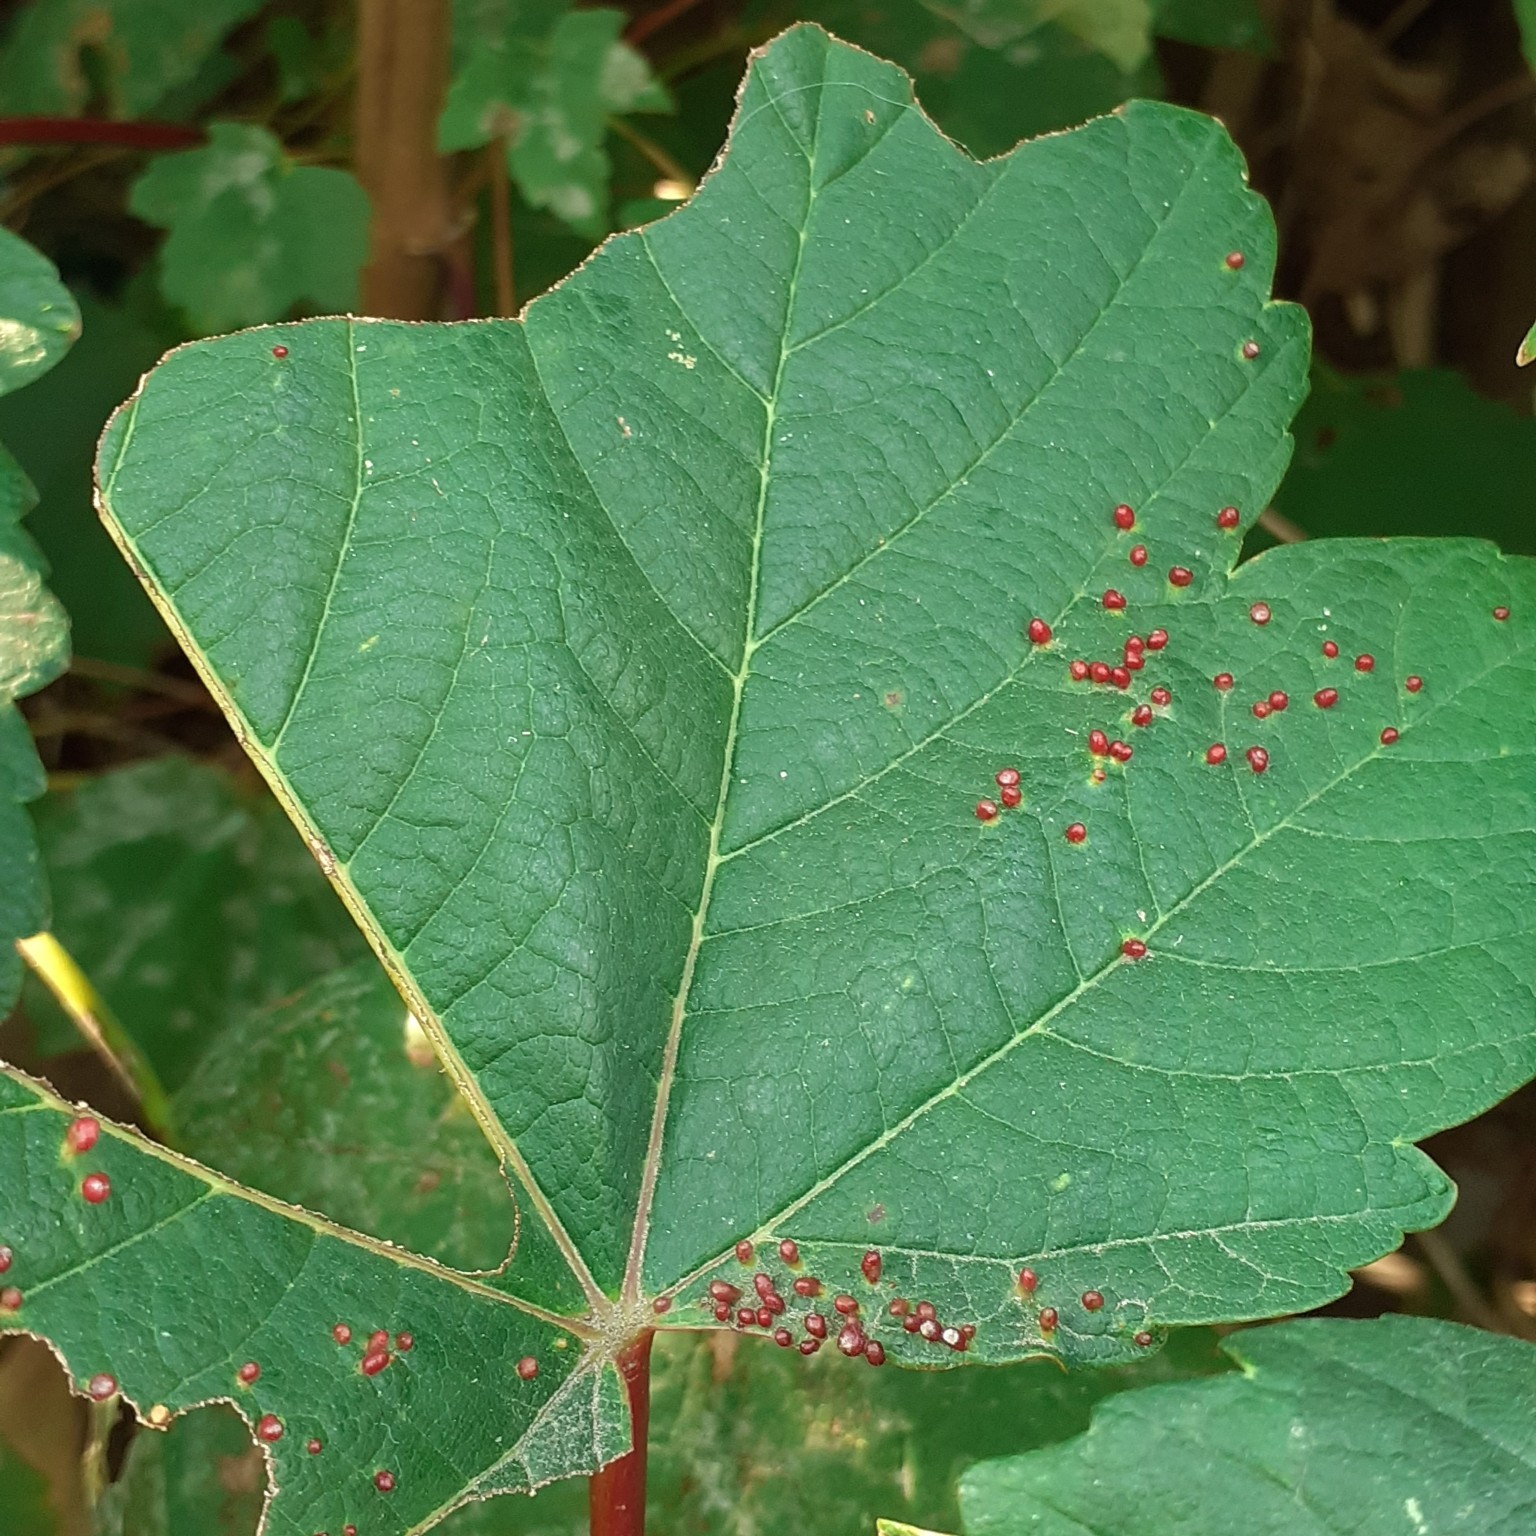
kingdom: Animalia
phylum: Arthropoda
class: Arachnida
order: Trombidiformes
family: Eriophyidae
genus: Aceria
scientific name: Aceria cephaloneus
